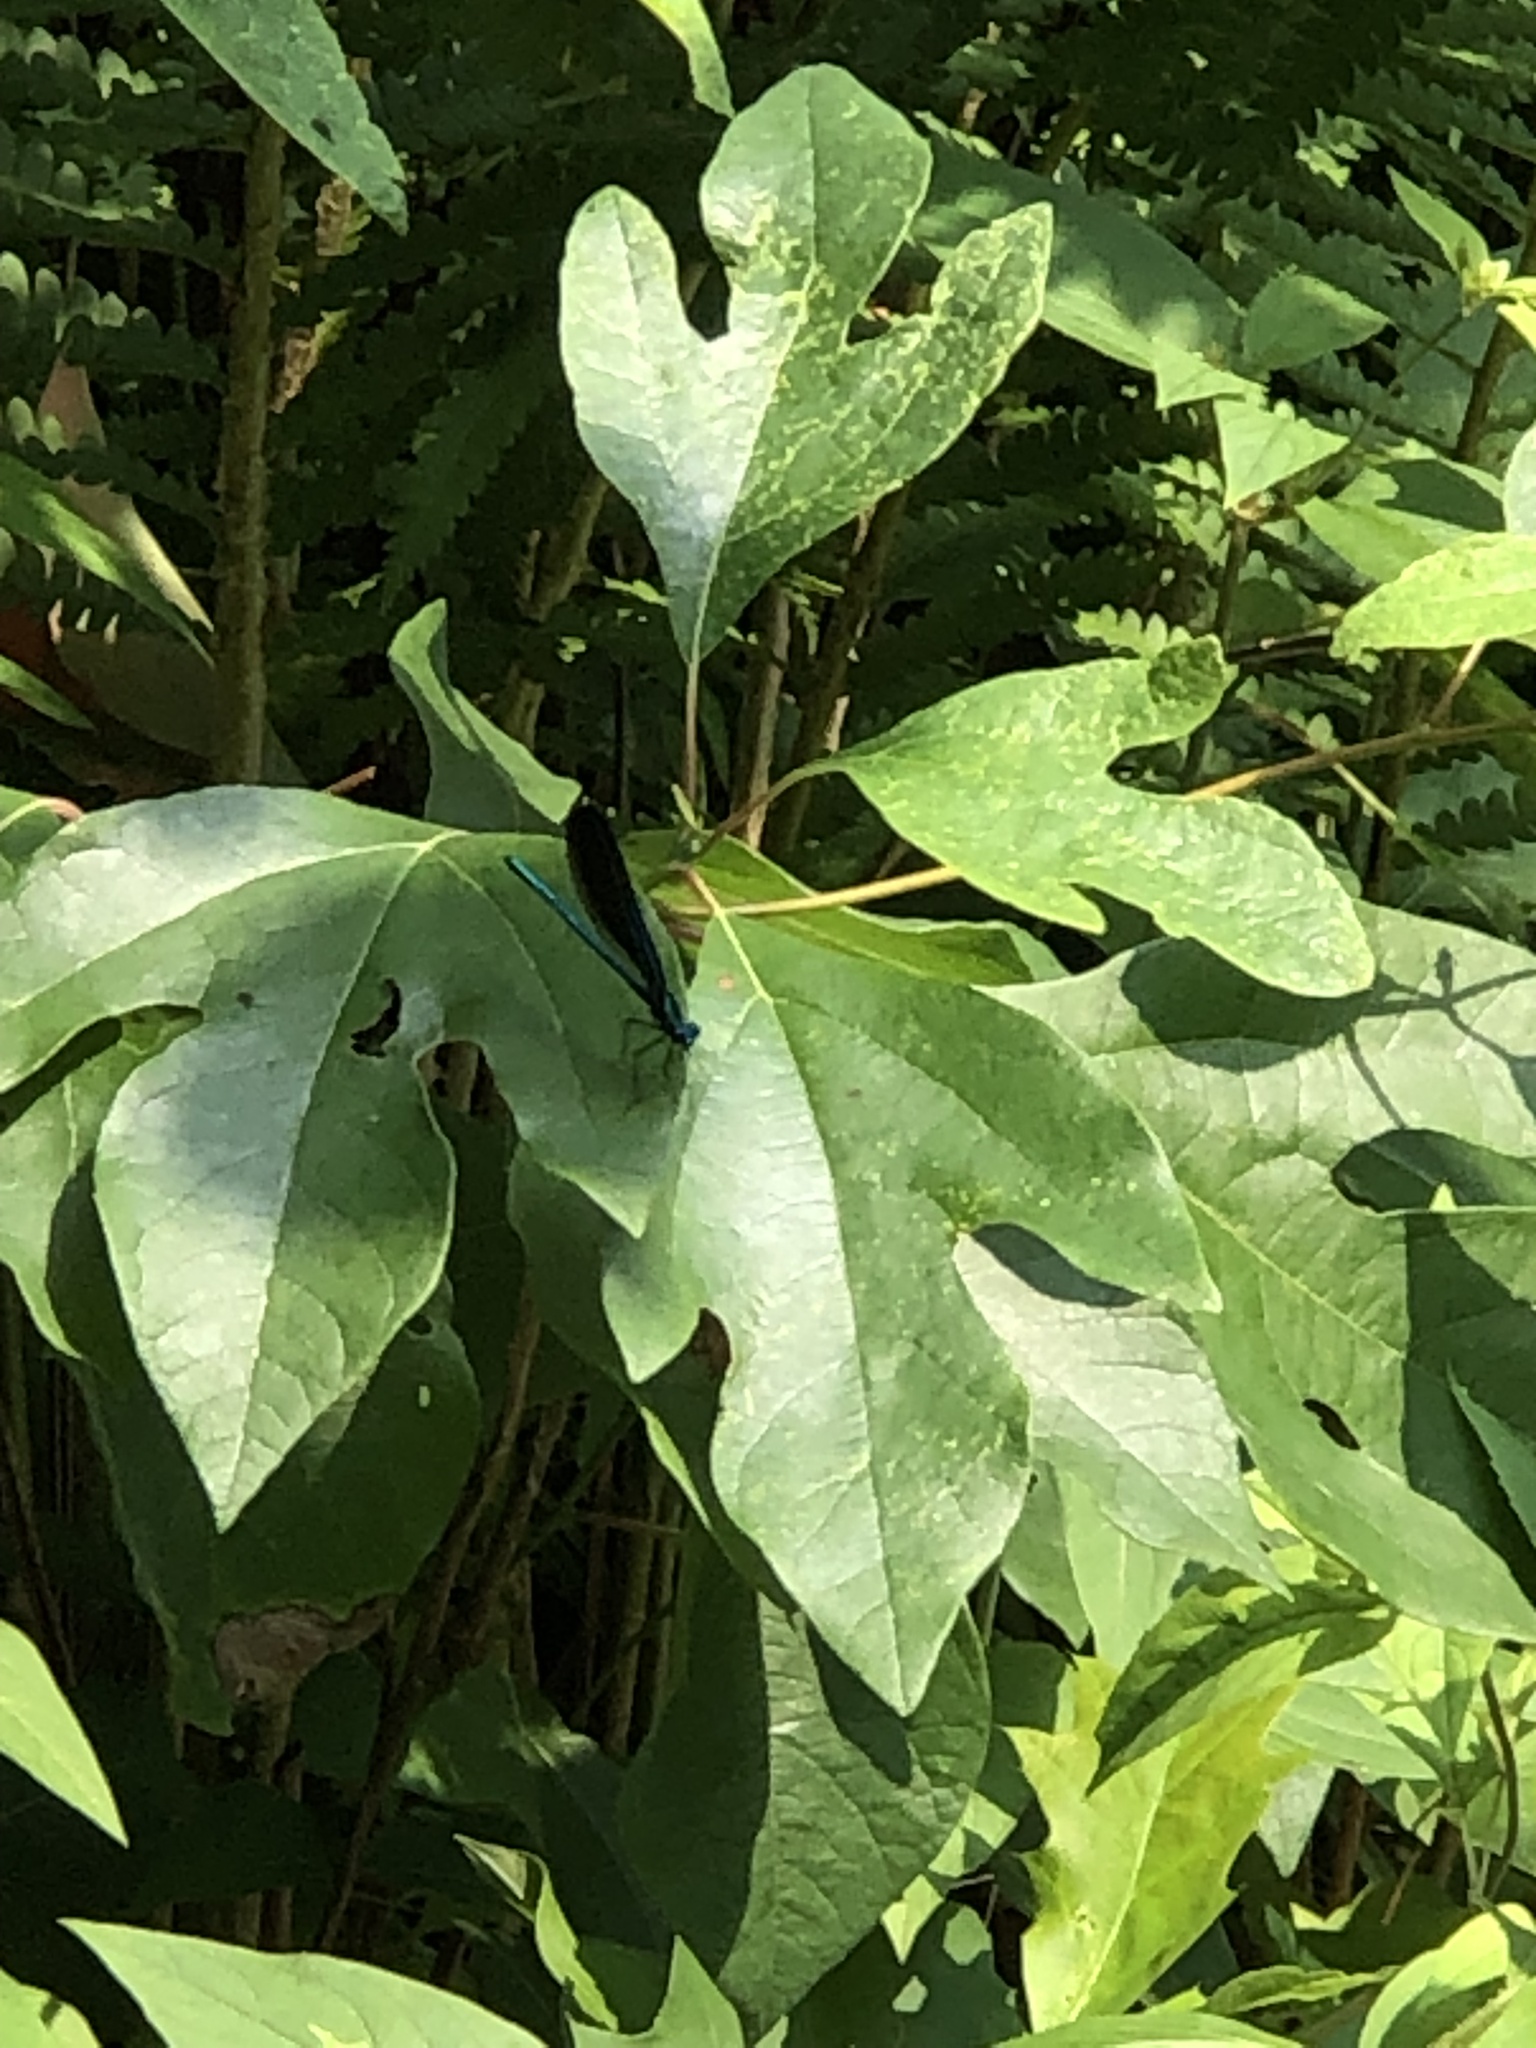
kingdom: Animalia
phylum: Arthropoda
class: Insecta
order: Odonata
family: Calopterygidae
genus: Calopteryx
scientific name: Calopteryx maculata
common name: Ebony jewelwing
